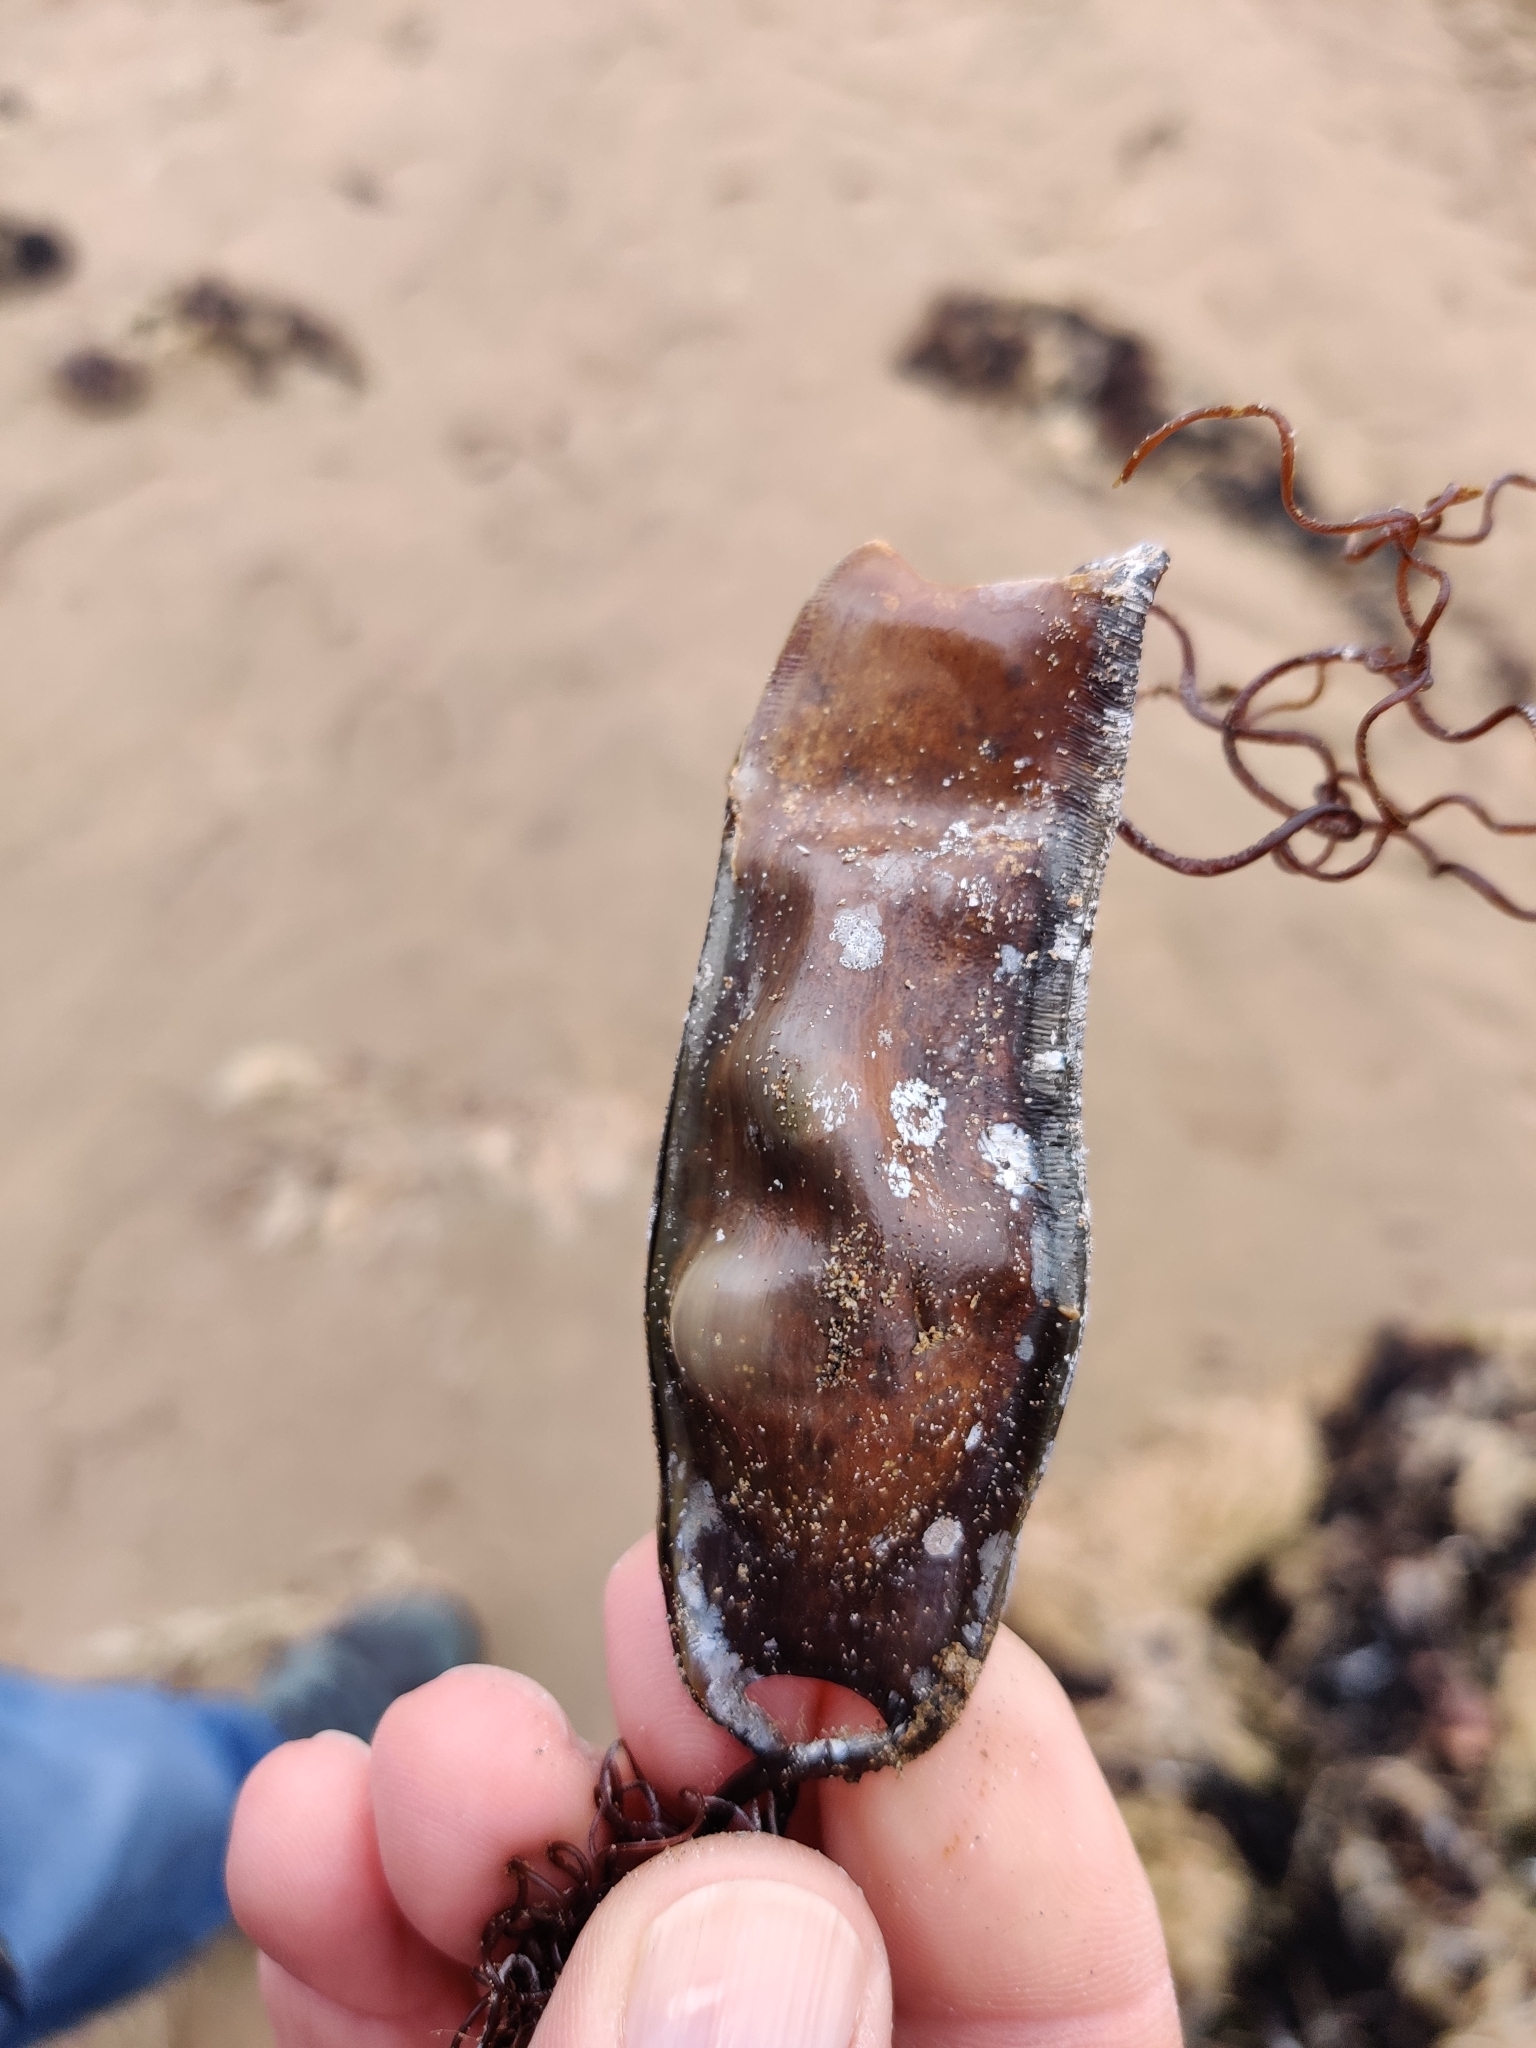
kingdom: Animalia
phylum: Chordata
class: Elasmobranchii
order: Carcharhiniformes
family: Scyliorhinidae
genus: Scyliorhinus
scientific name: Scyliorhinus canicula
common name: Lesser spotted dogfish
